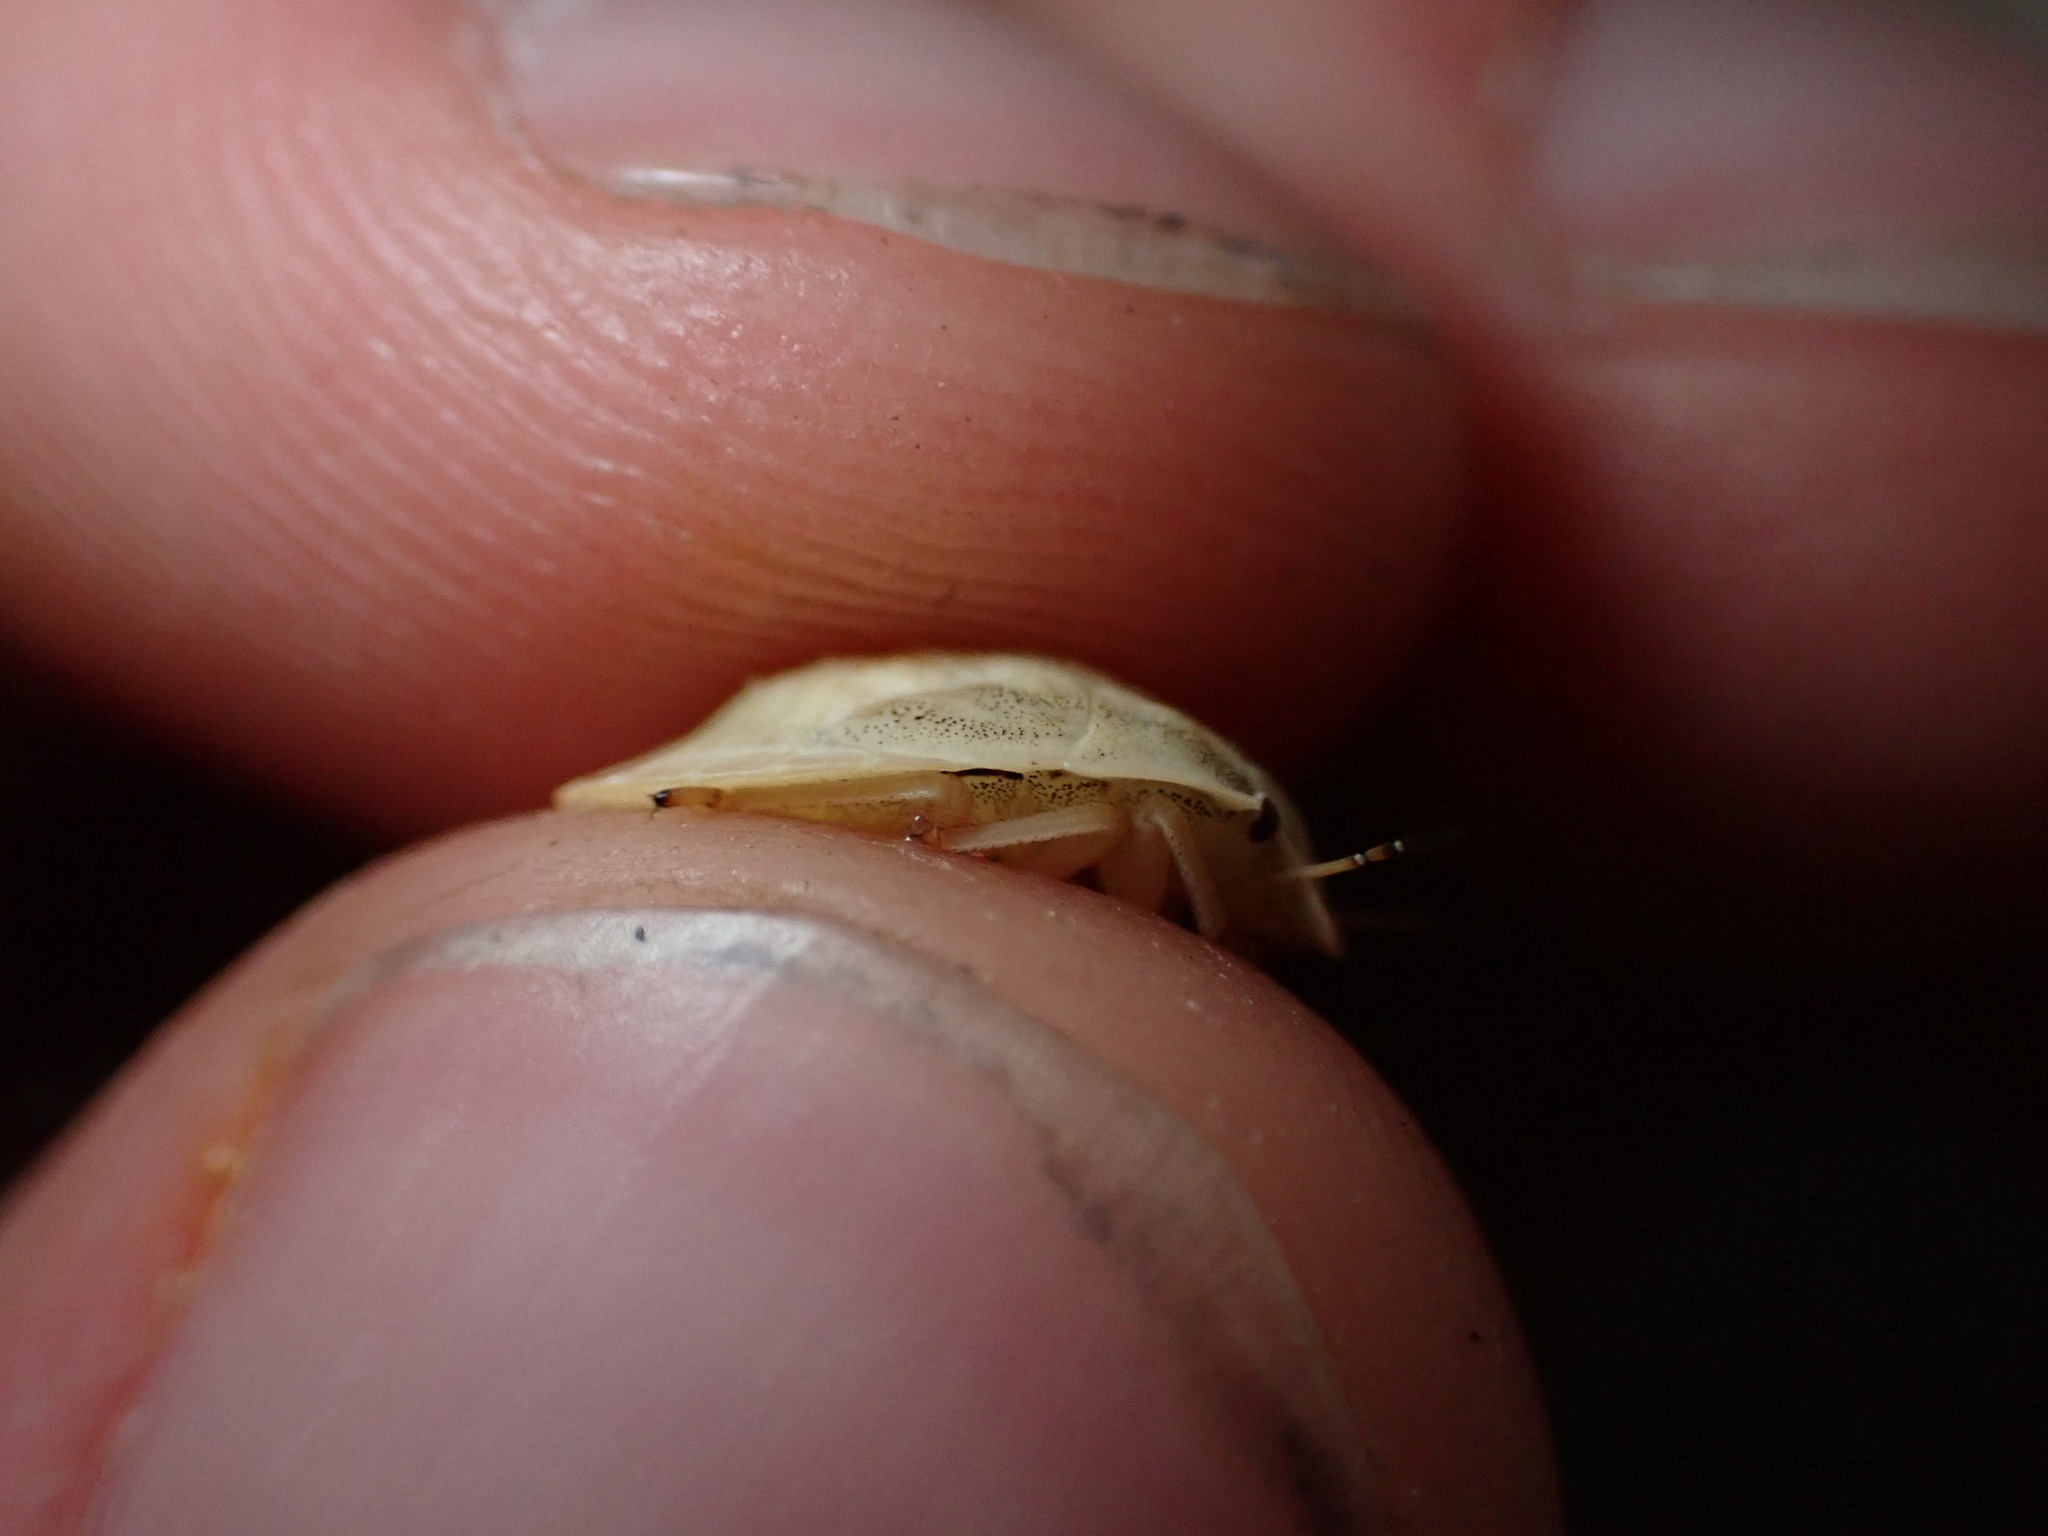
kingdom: Animalia
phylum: Arthropoda
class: Insecta
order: Hemiptera
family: Scutelleridae
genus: Eurygaster
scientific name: Eurygaster austriaca
